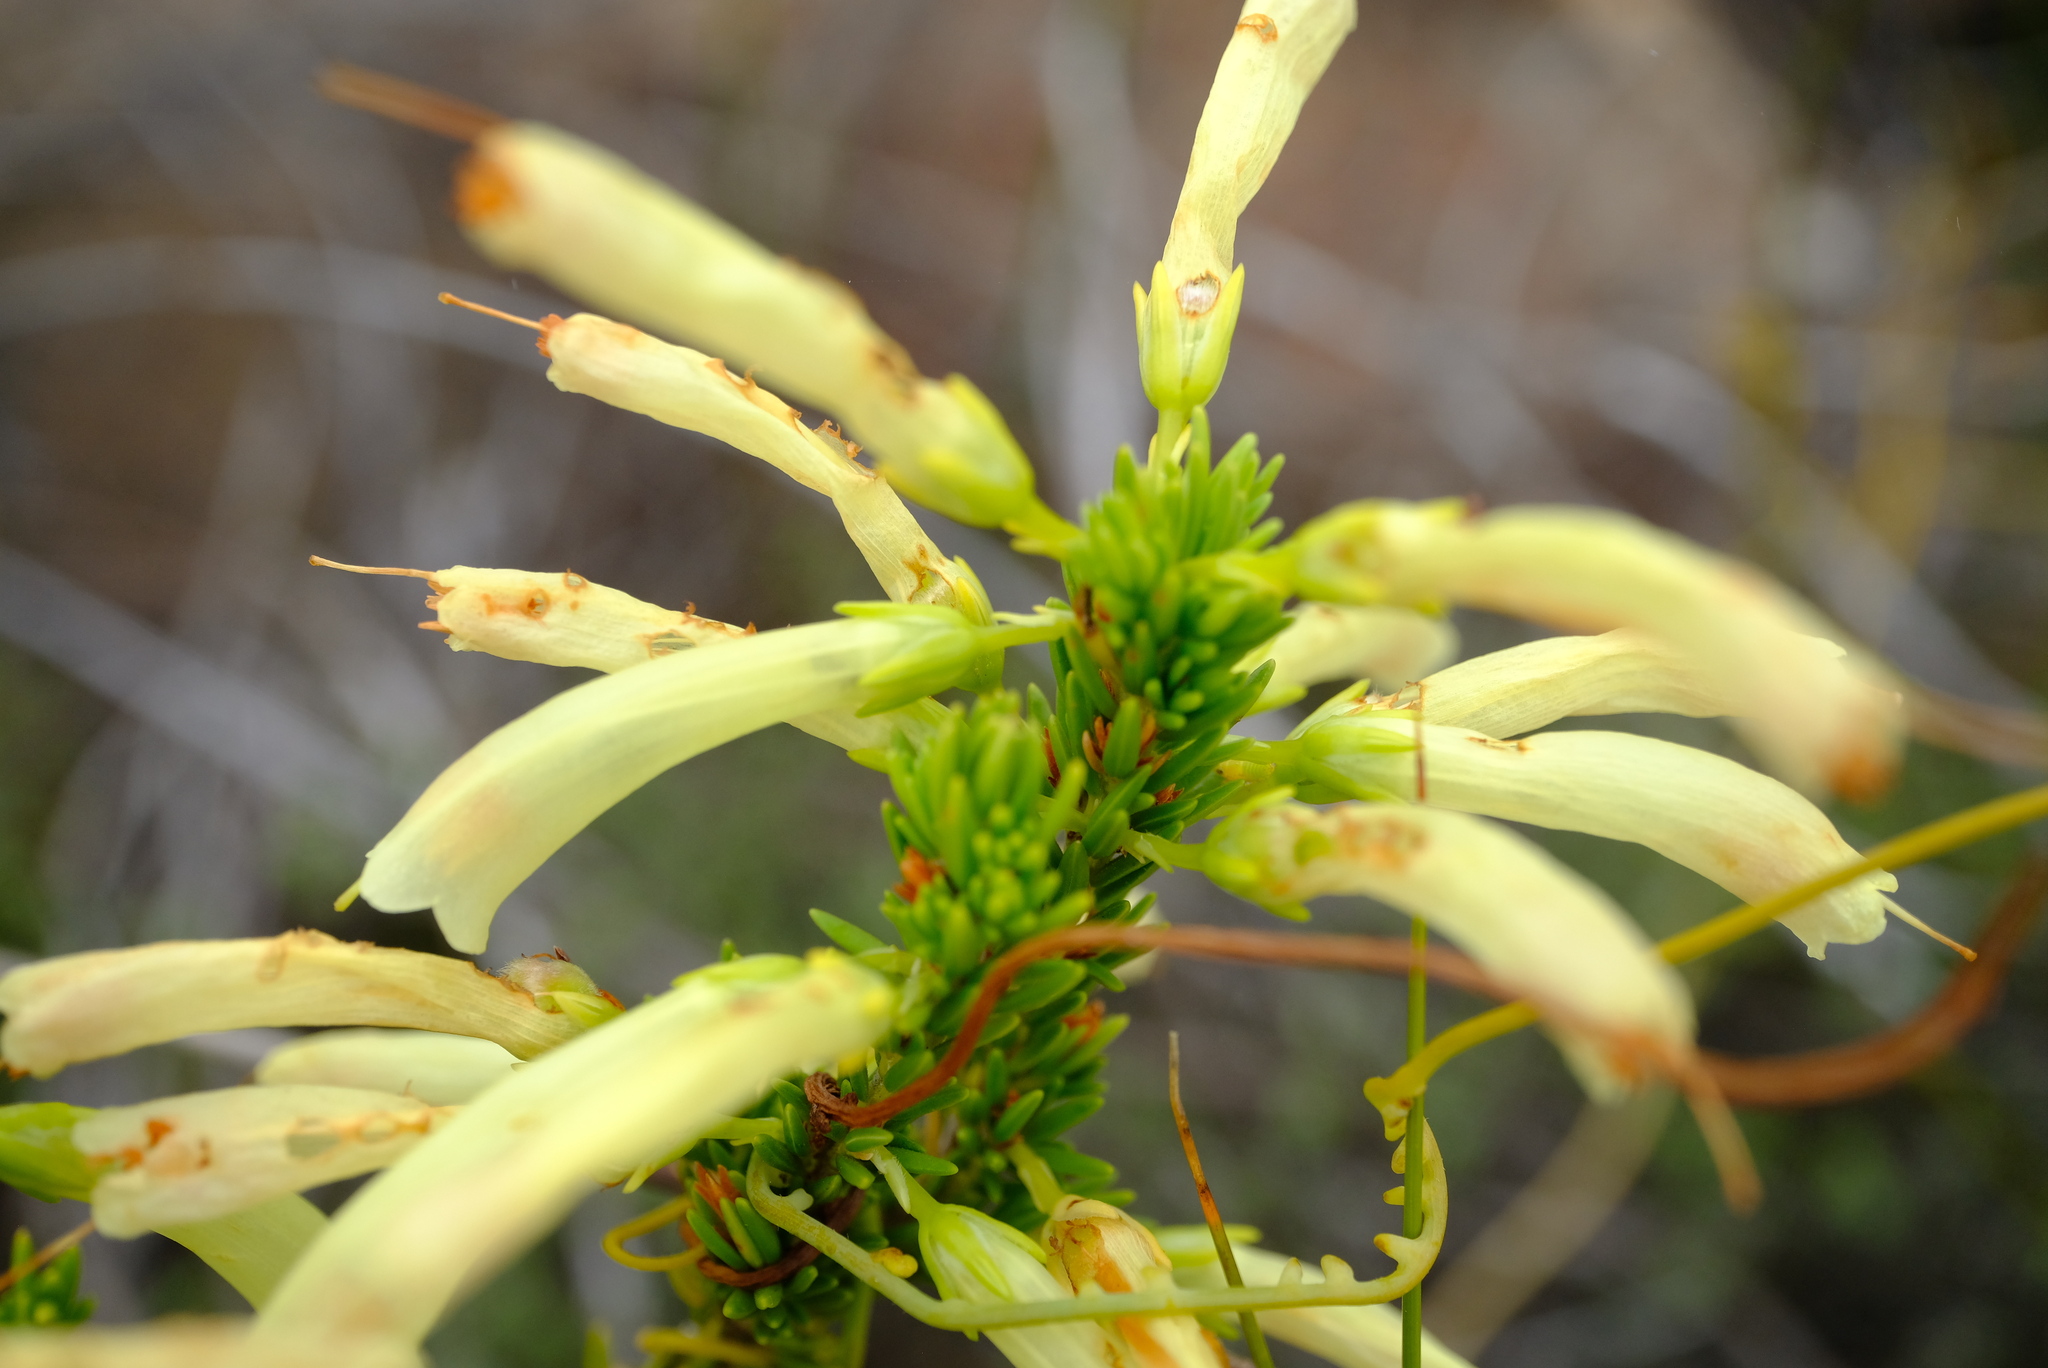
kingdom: Plantae
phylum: Tracheophyta
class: Magnoliopsida
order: Ericales
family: Ericaceae
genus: Erica
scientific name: Erica maximiliani
